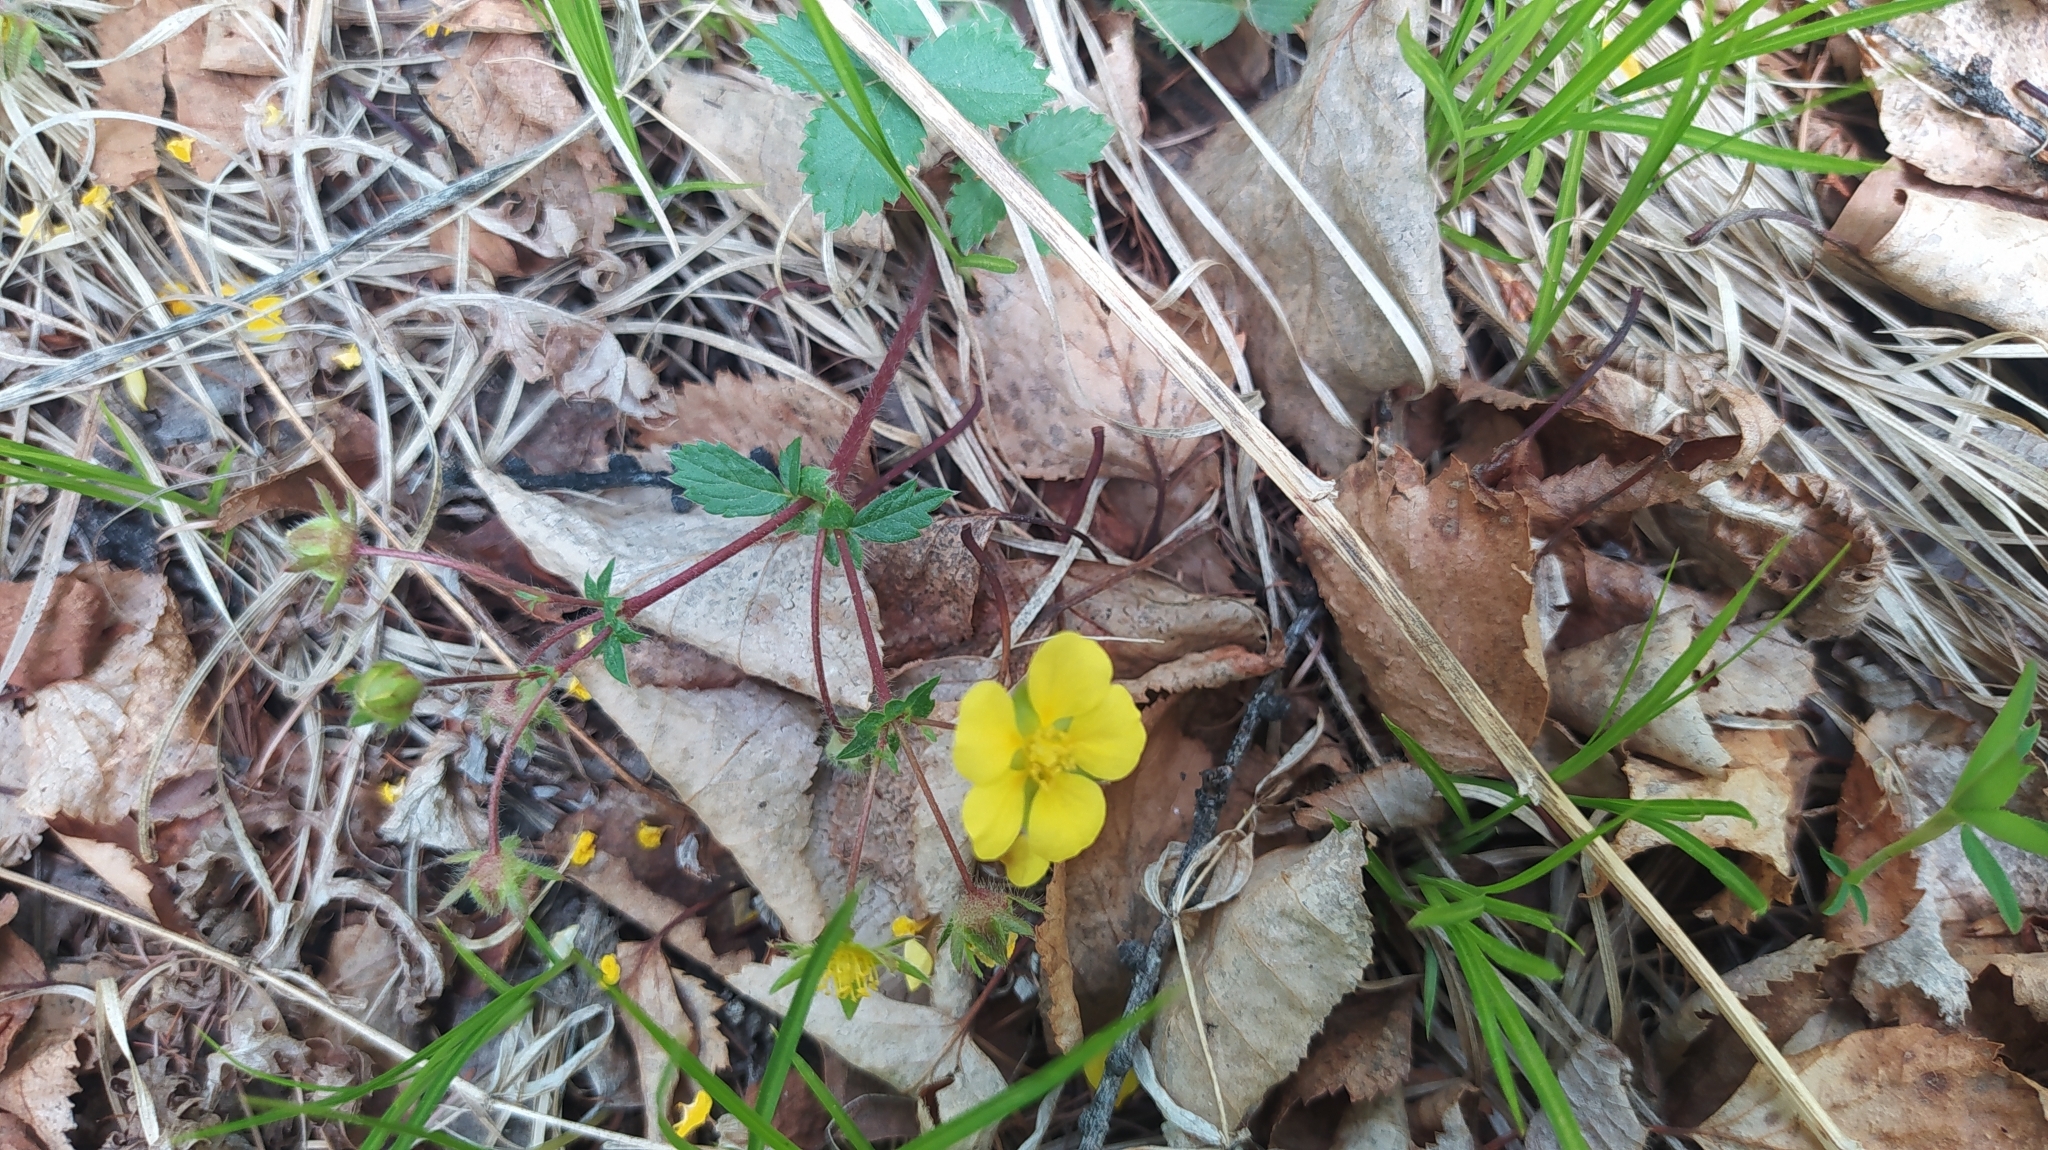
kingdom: Plantae
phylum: Tracheophyta
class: Magnoliopsida
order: Rosales
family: Rosaceae
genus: Potentilla
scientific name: Potentilla fragarioides
